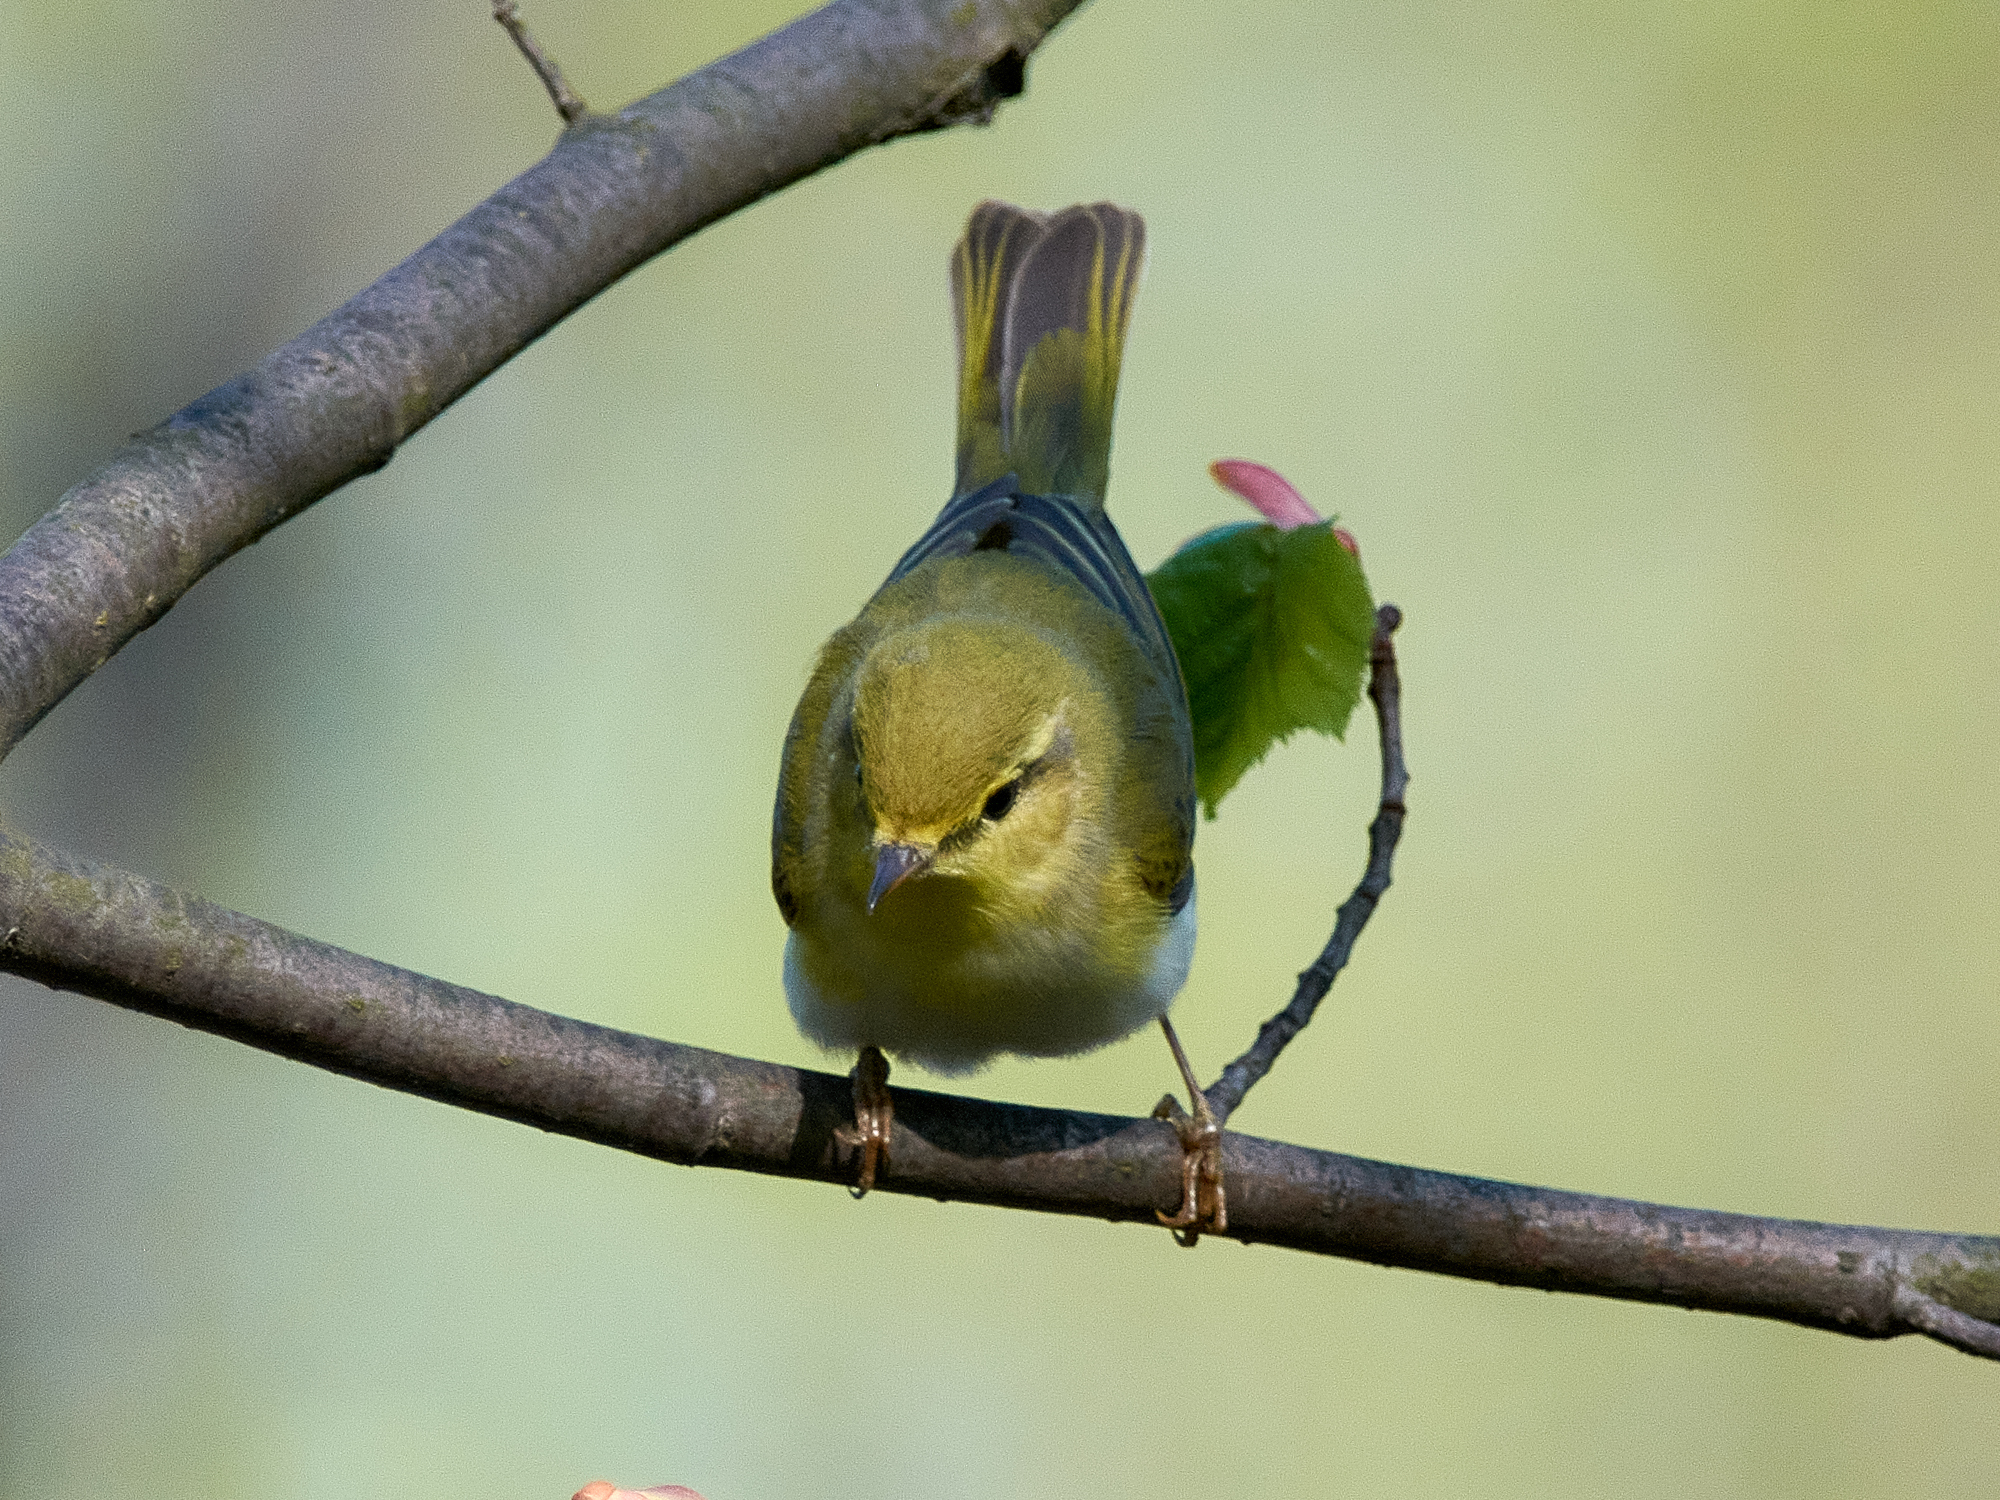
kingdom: Animalia
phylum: Chordata
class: Aves
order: Passeriformes
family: Phylloscopidae
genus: Phylloscopus
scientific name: Phylloscopus sibillatrix
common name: Wood warbler
